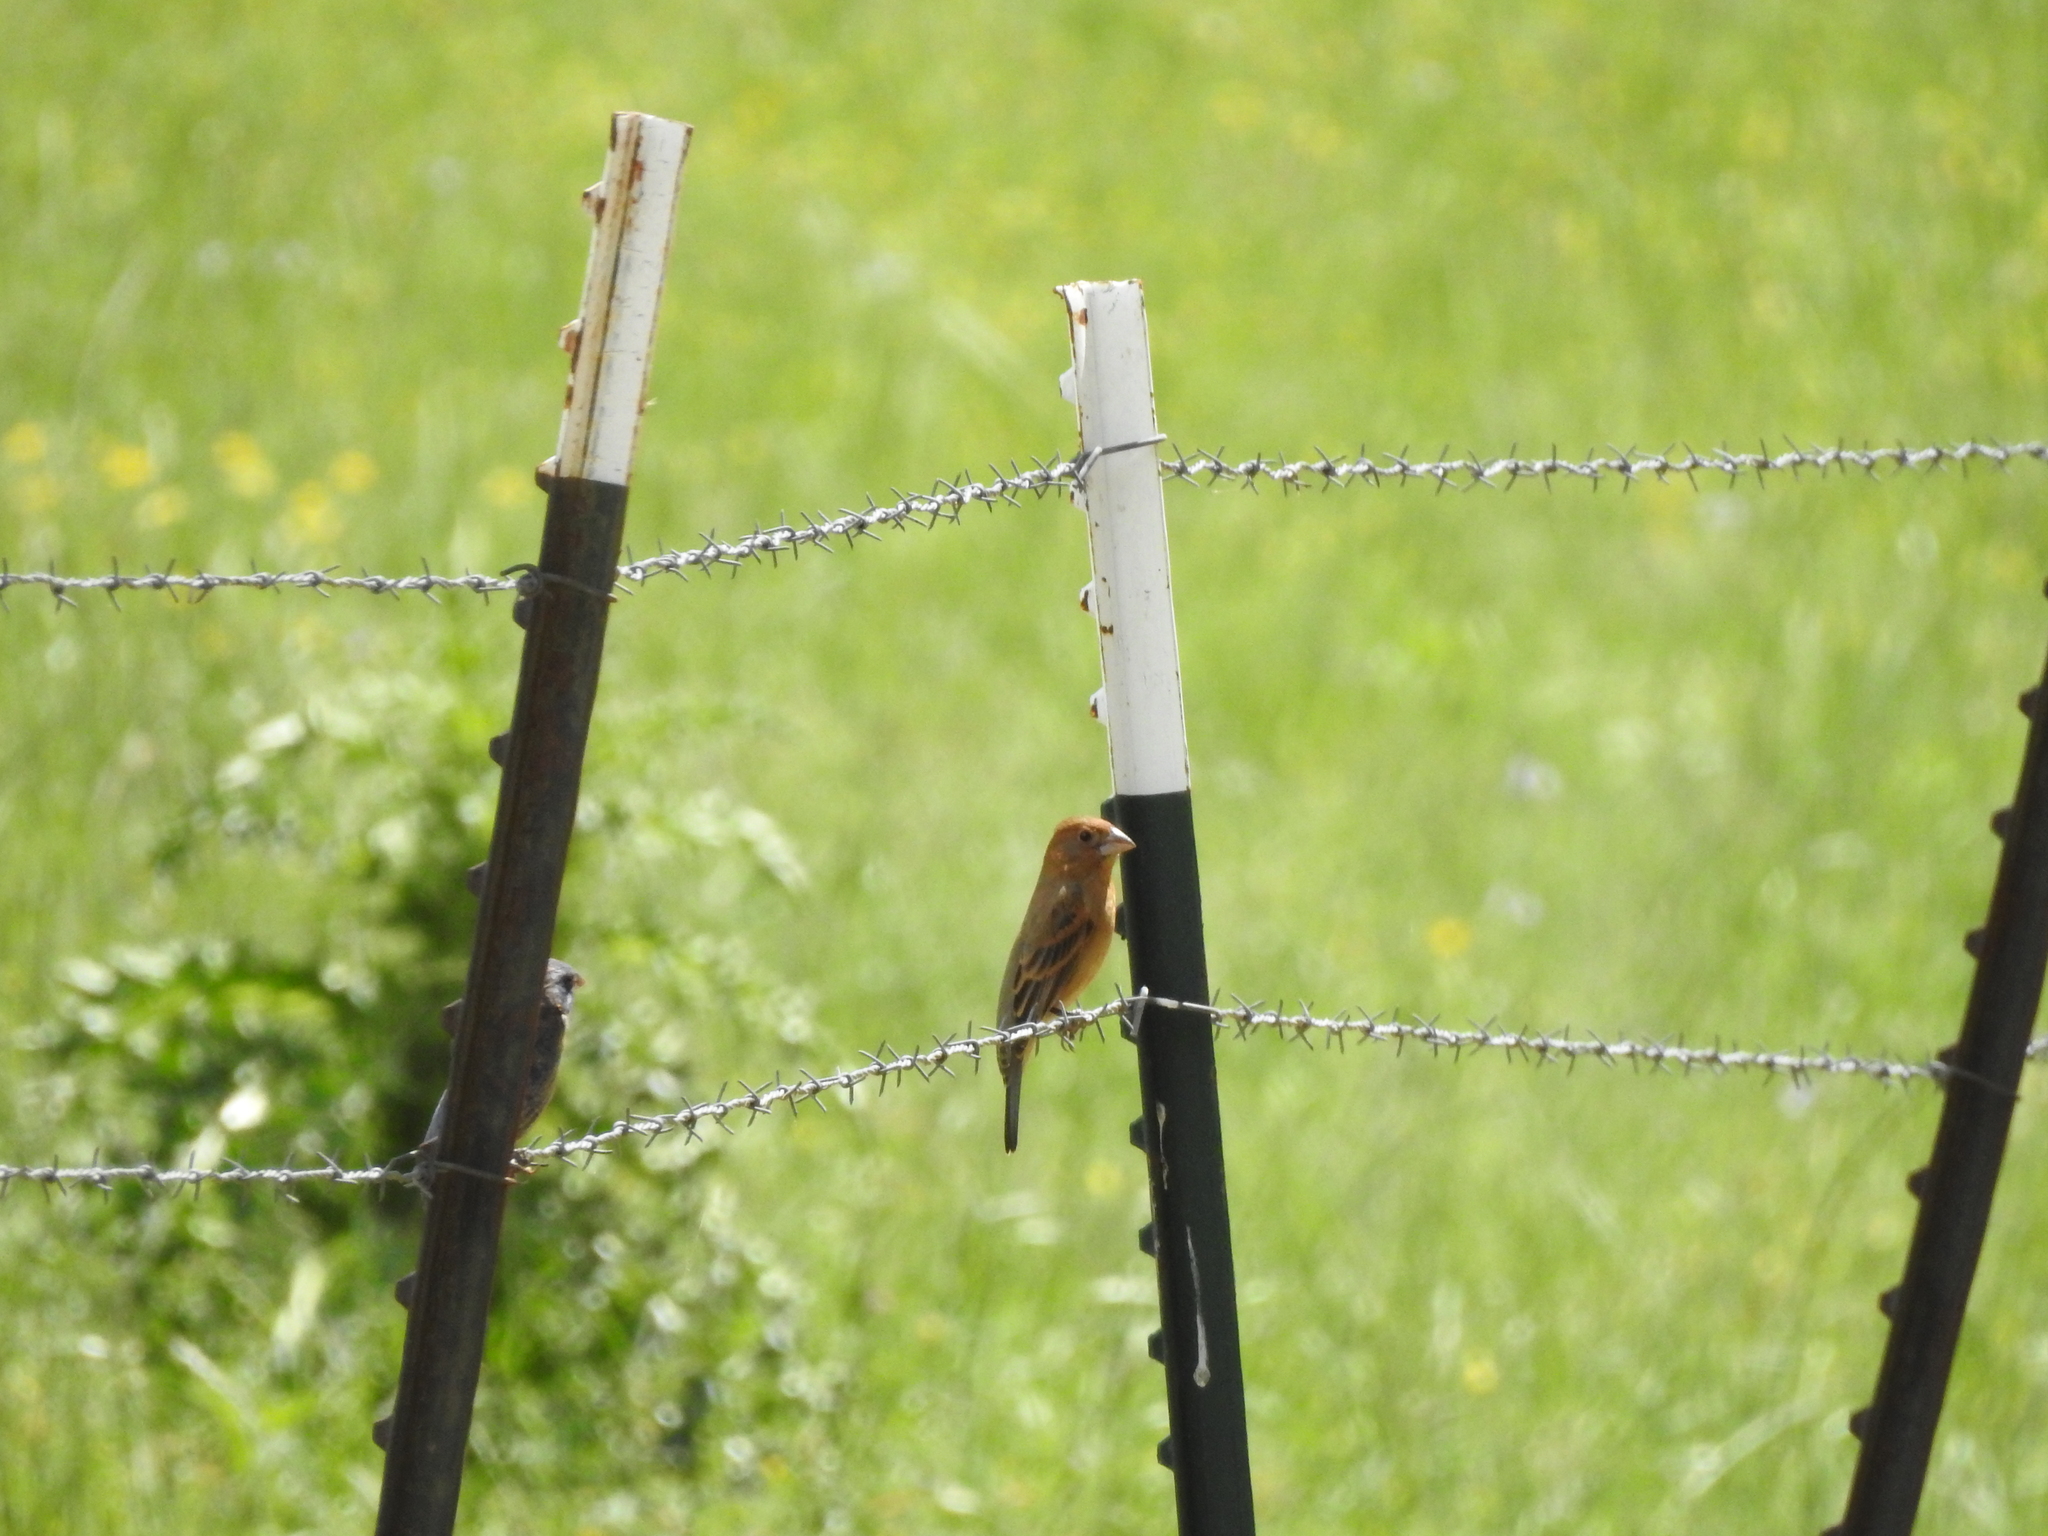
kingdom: Animalia
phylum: Chordata
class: Aves
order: Passeriformes
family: Cardinalidae
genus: Passerina
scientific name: Passerina caerulea
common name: Blue grosbeak
